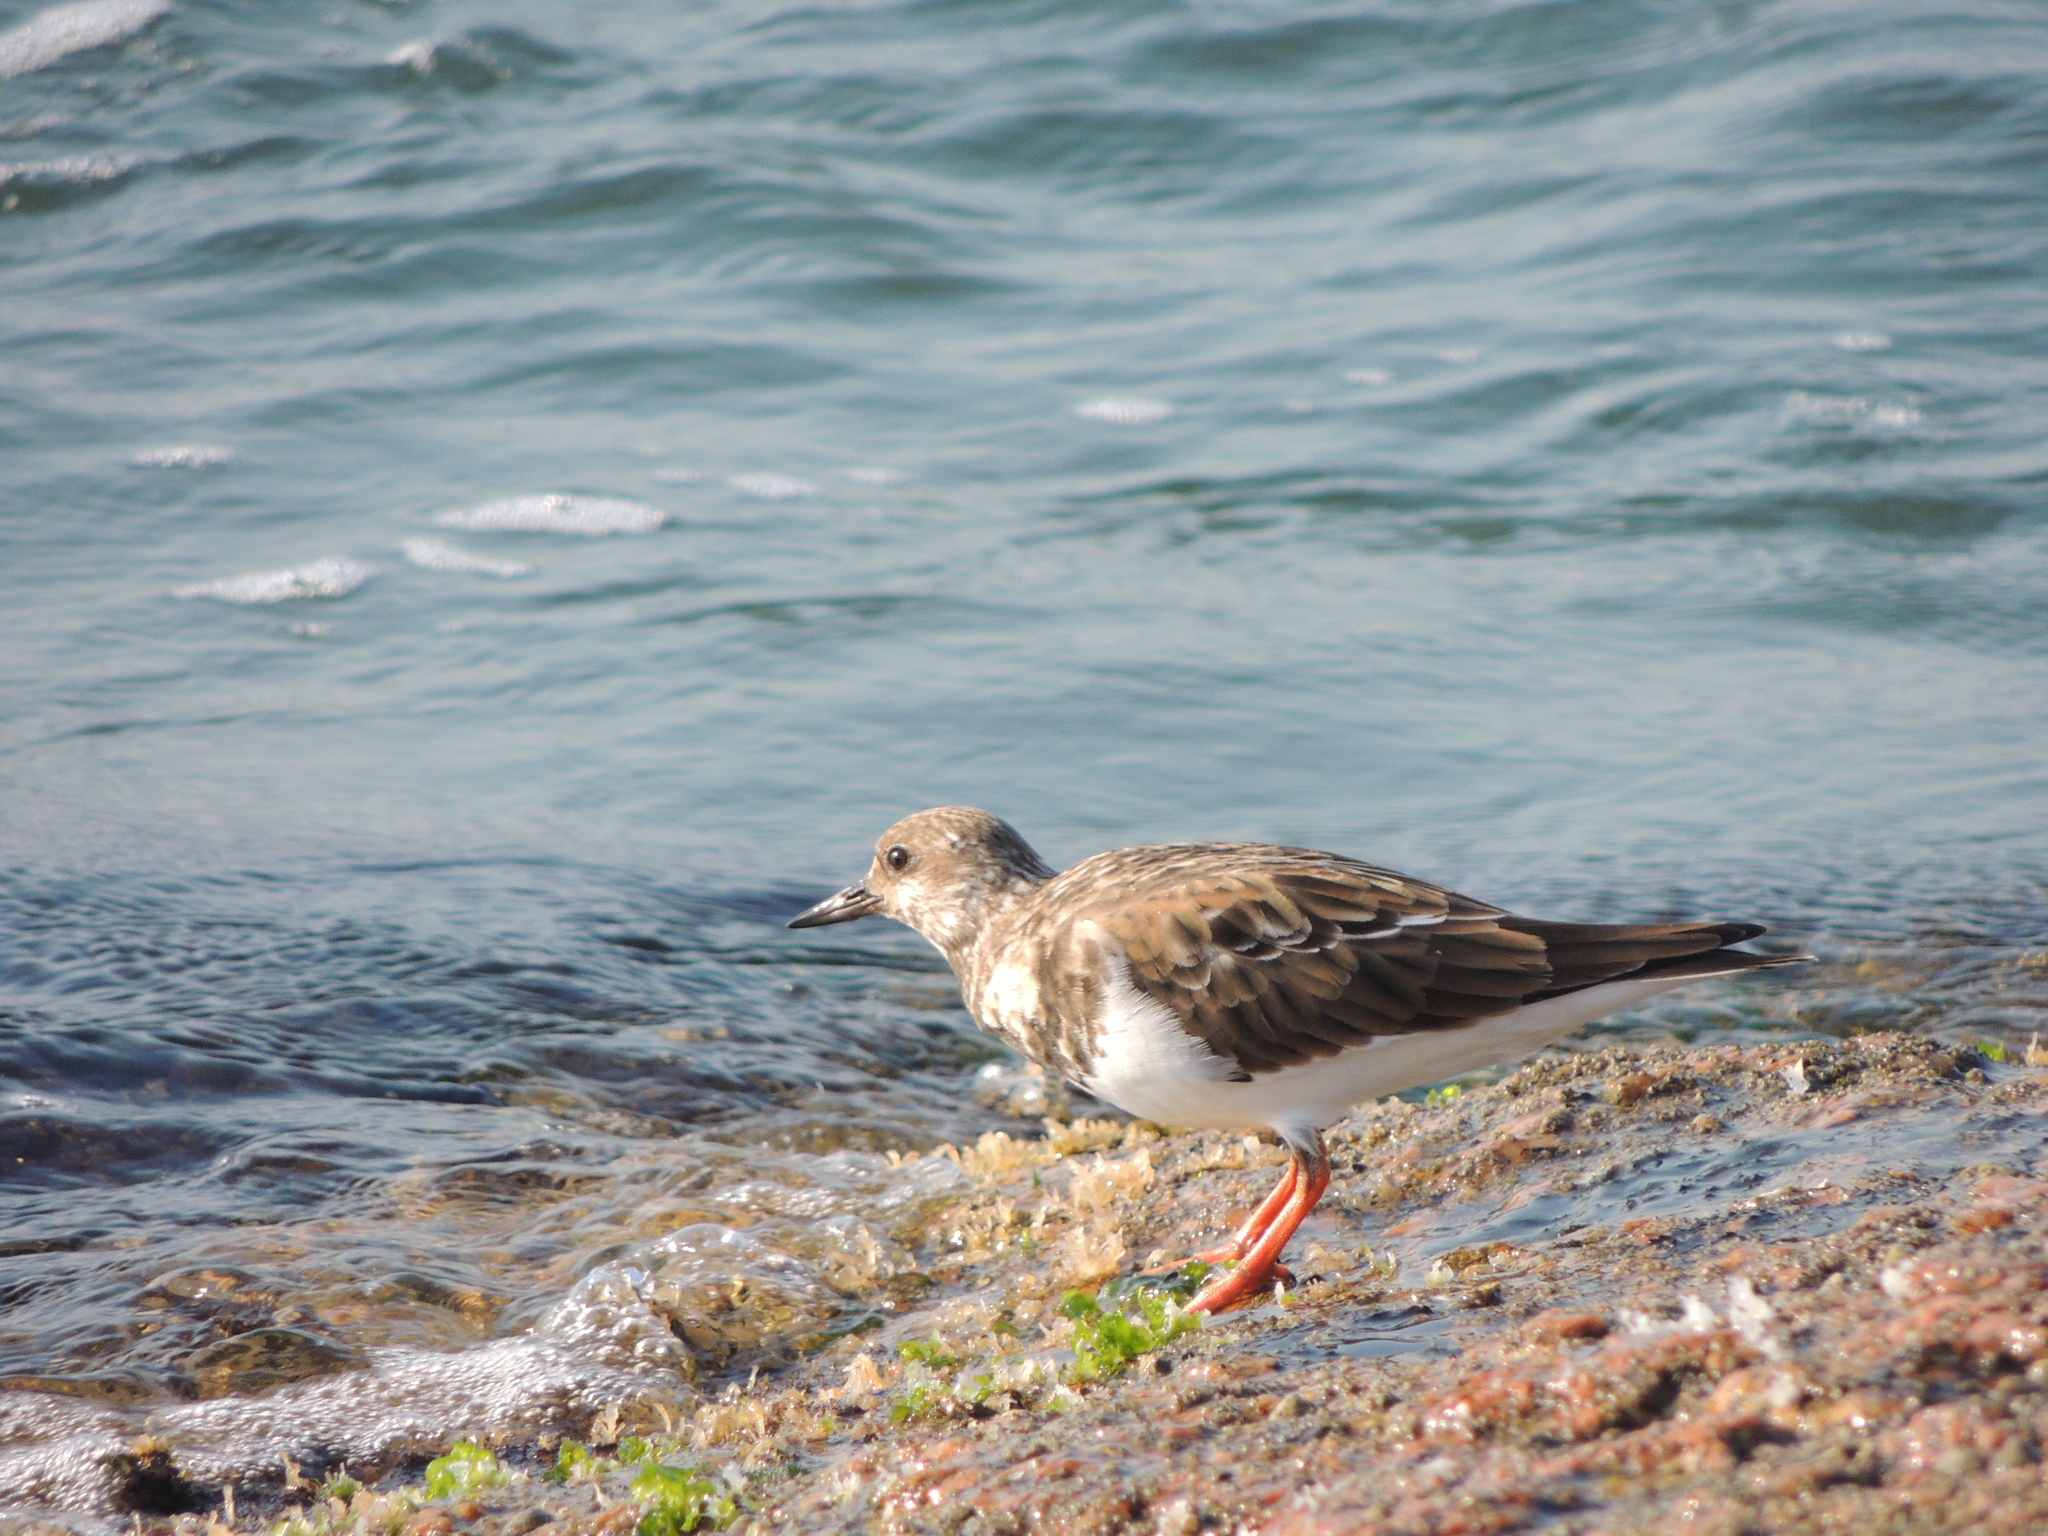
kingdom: Animalia
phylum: Chordata
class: Aves
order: Charadriiformes
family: Scolopacidae
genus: Arenaria
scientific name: Arenaria interpres
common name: Ruddy turnstone
